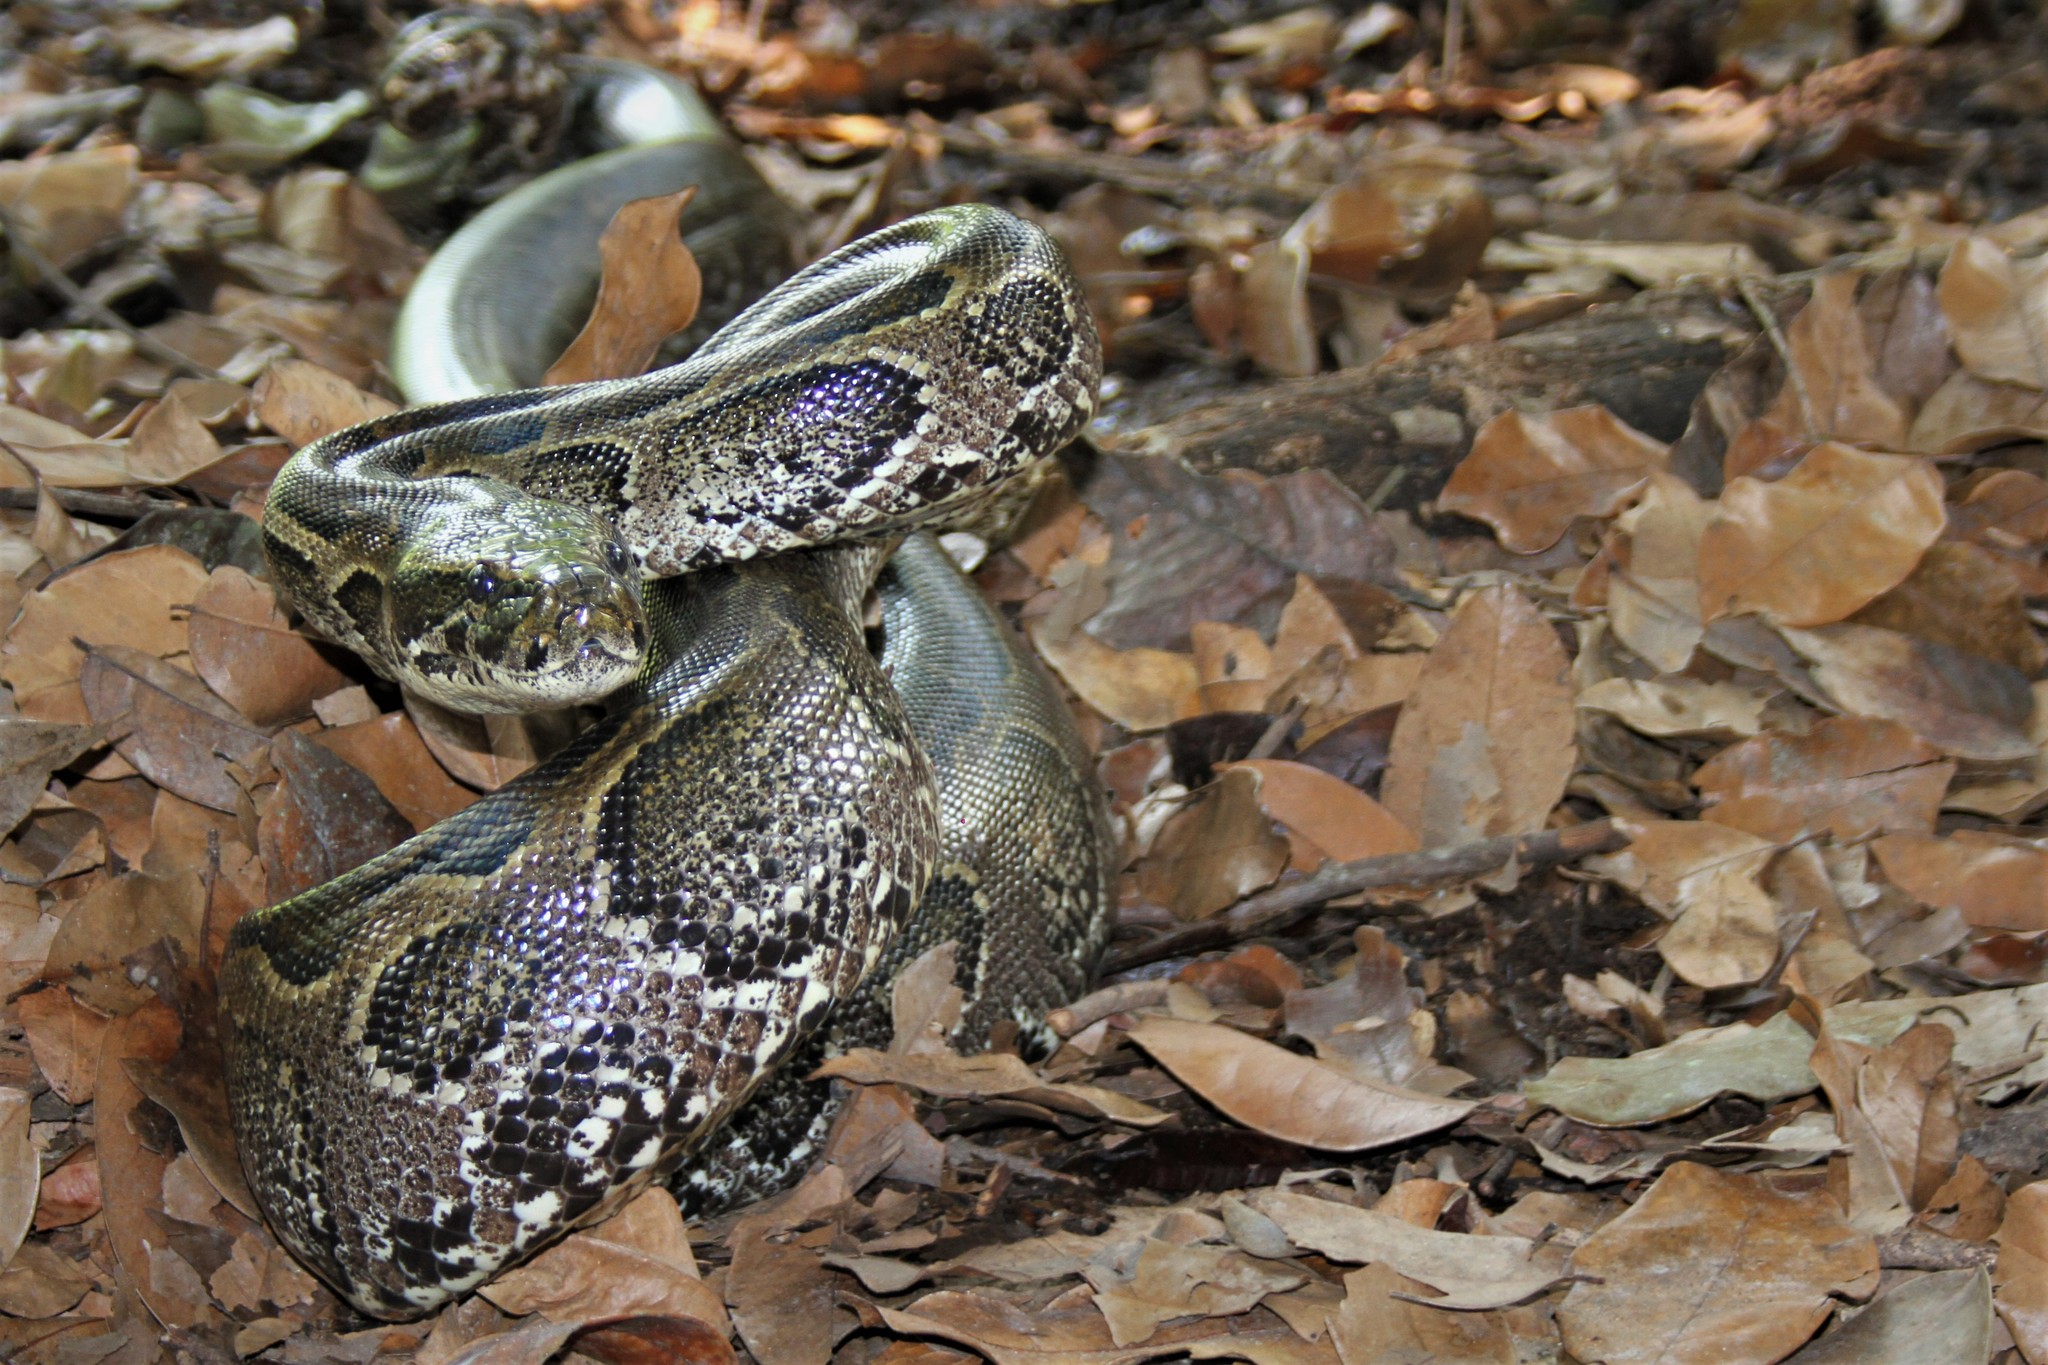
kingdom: Animalia
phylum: Chordata
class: Squamata
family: Pythonidae
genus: Python
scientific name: Python sebae
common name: African rock python
